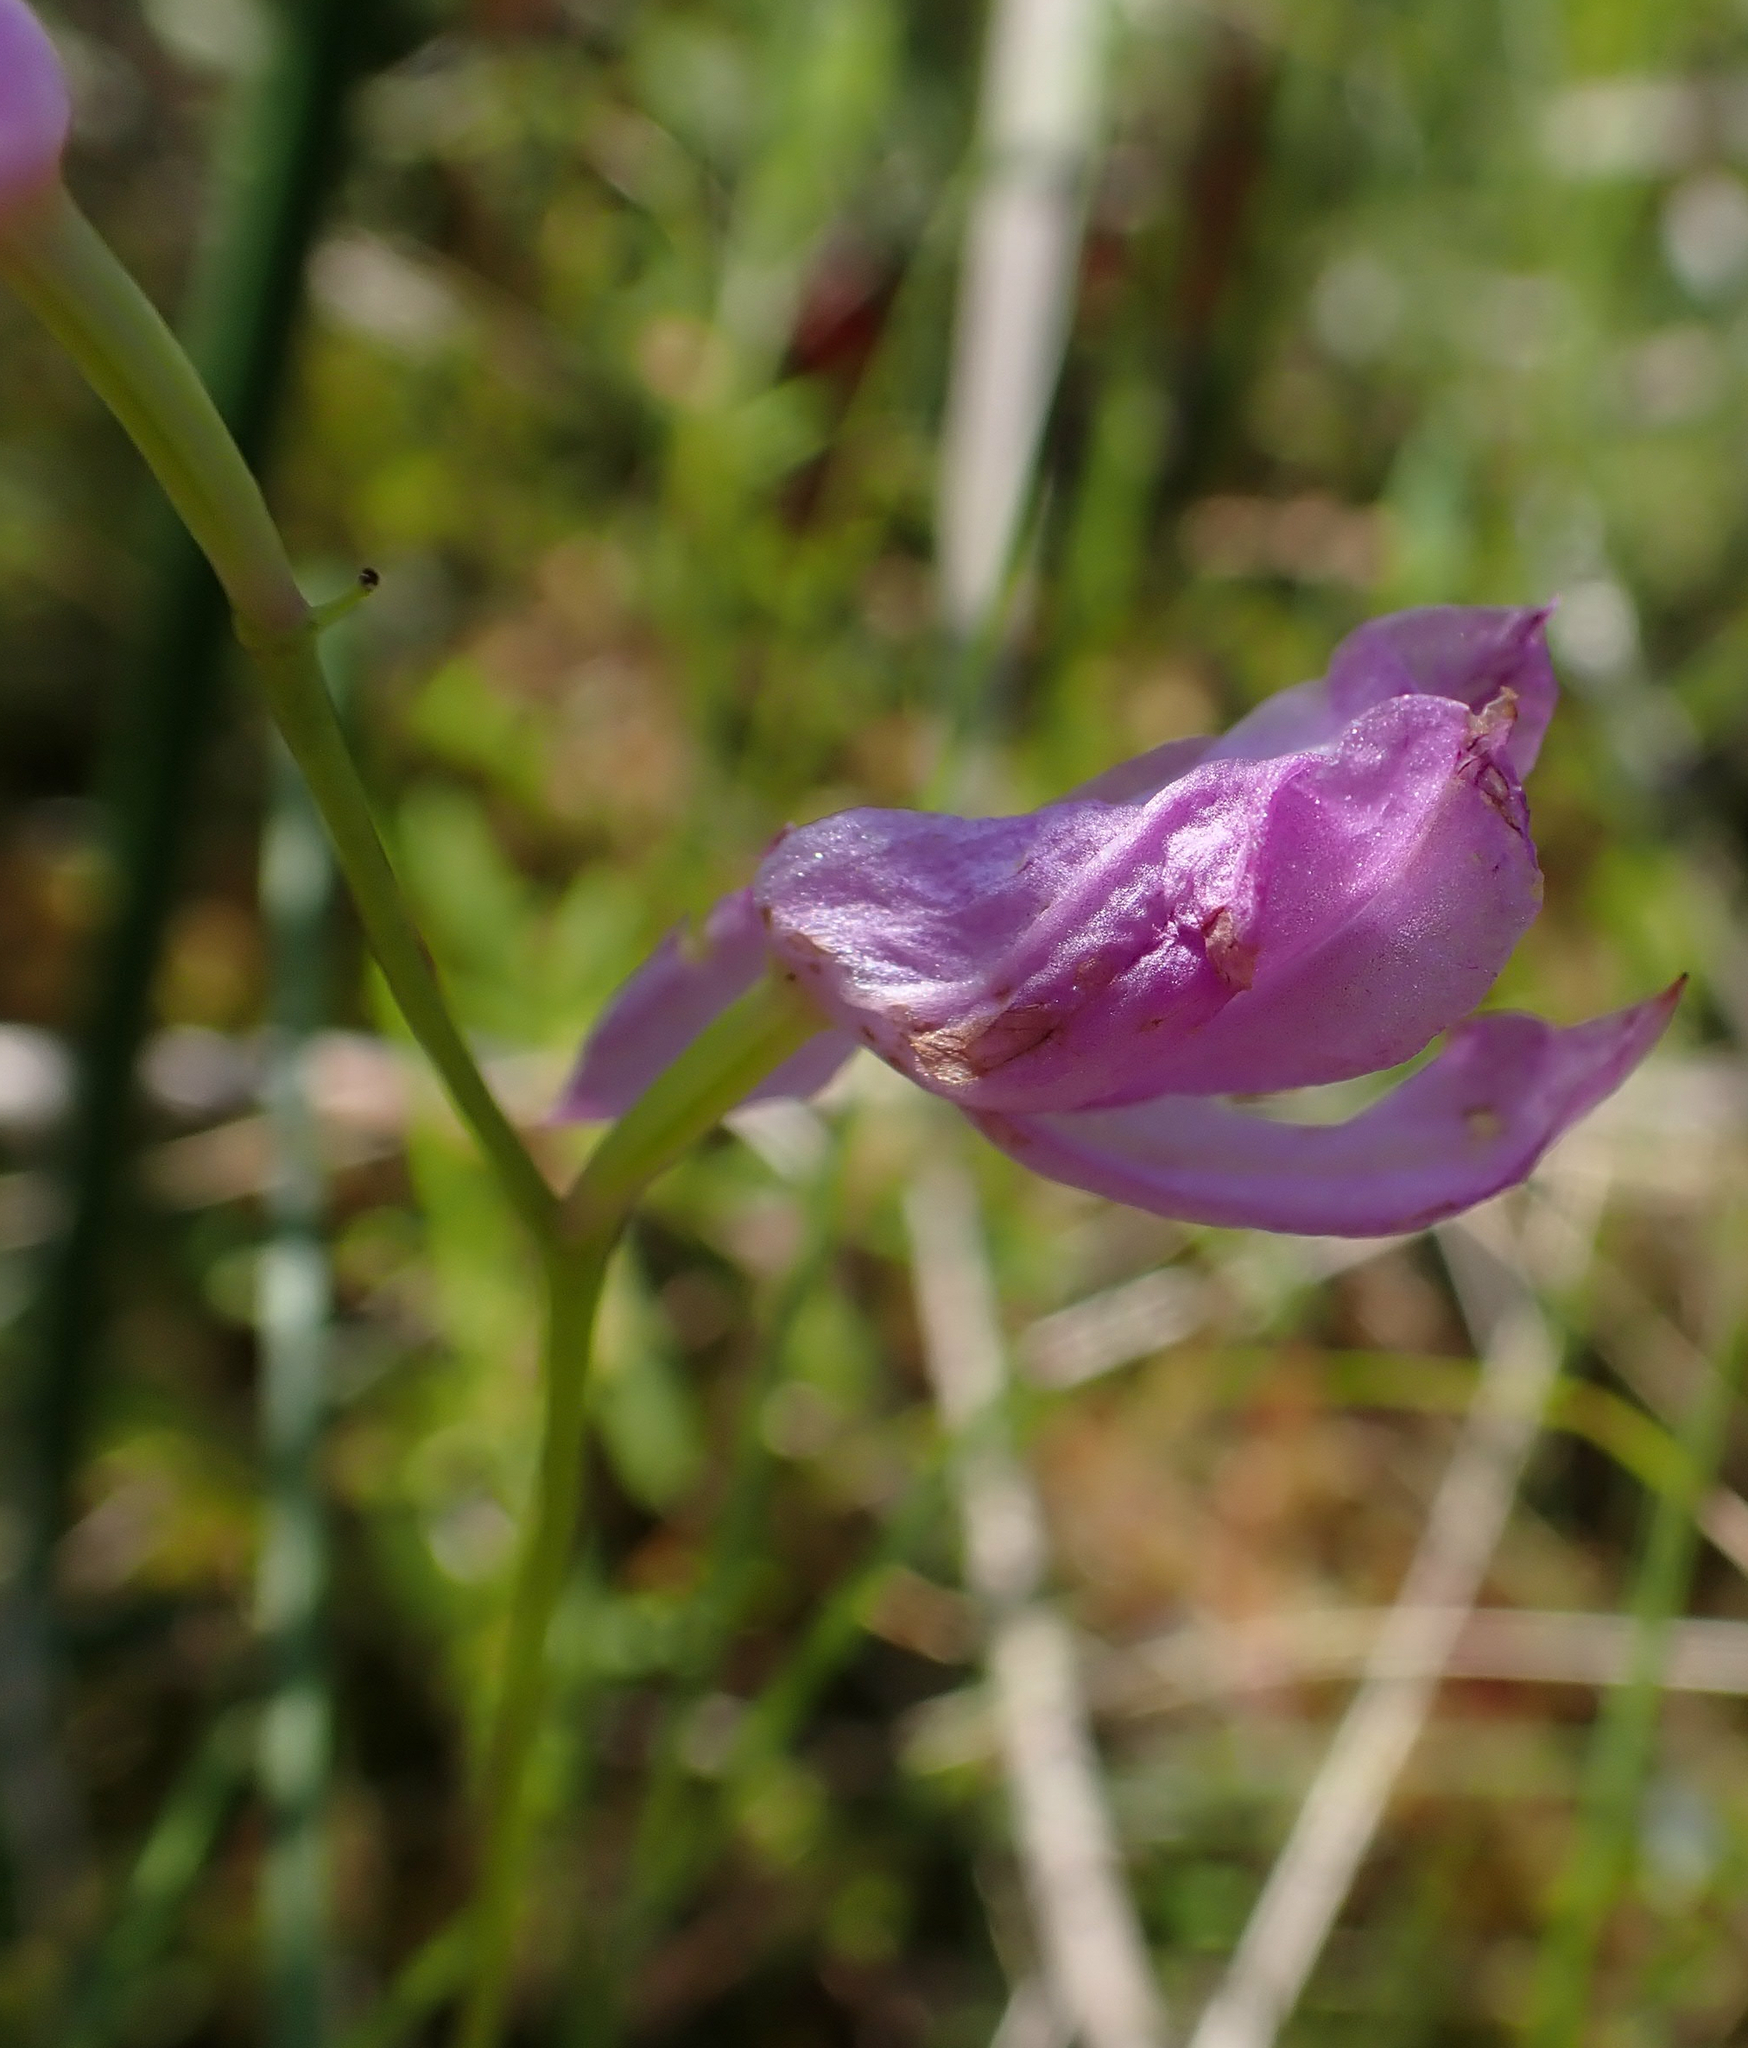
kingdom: Plantae
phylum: Tracheophyta
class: Liliopsida
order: Asparagales
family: Orchidaceae
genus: Calopogon
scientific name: Calopogon tuberosus
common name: Grass-pink
